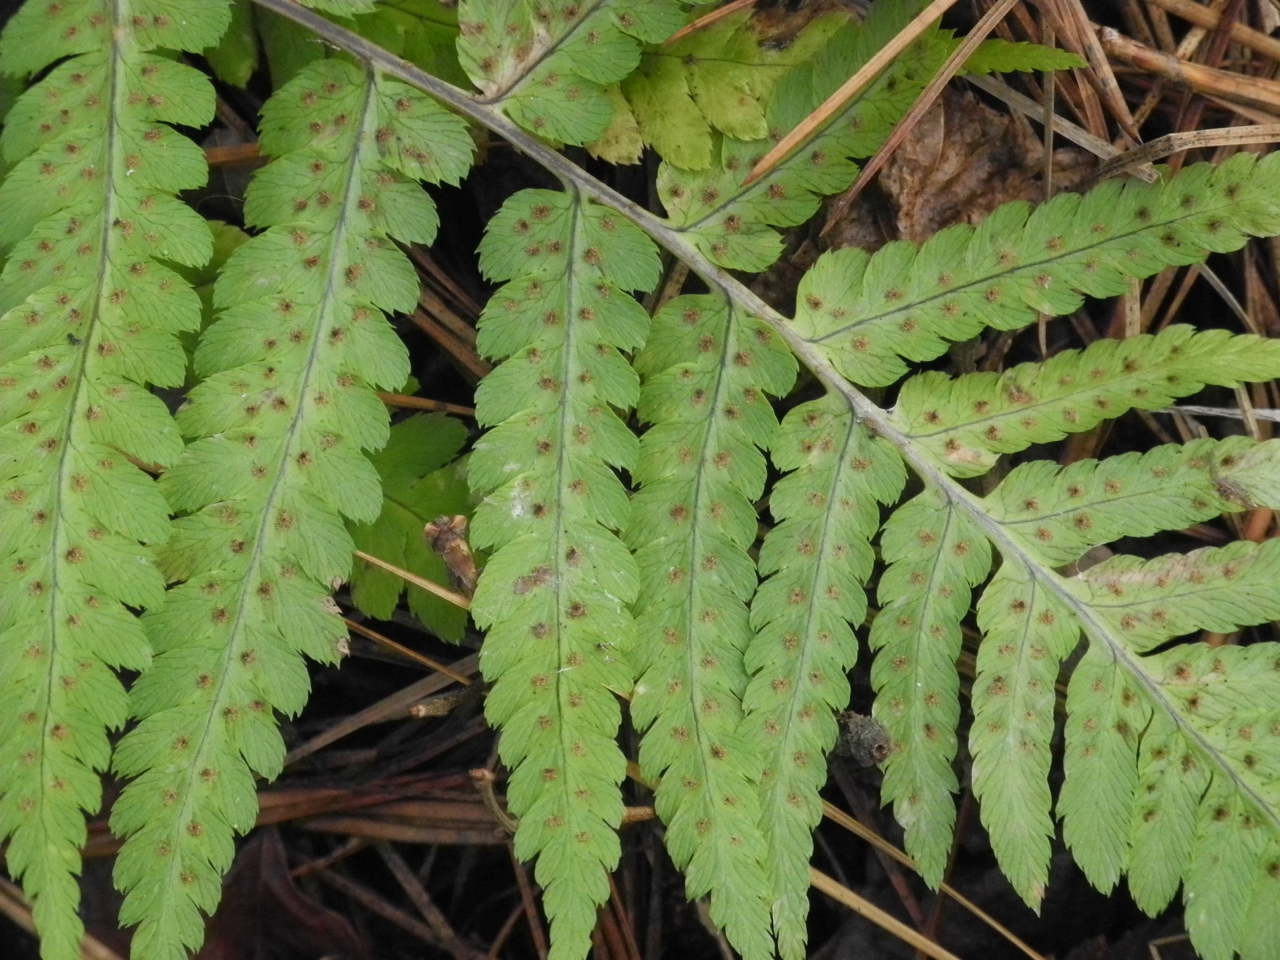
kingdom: Plantae
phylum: Tracheophyta
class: Polypodiopsida
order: Polypodiales
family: Dryopteridaceae
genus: Dryopteris
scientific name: Dryopteris celsa
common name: Log fern
